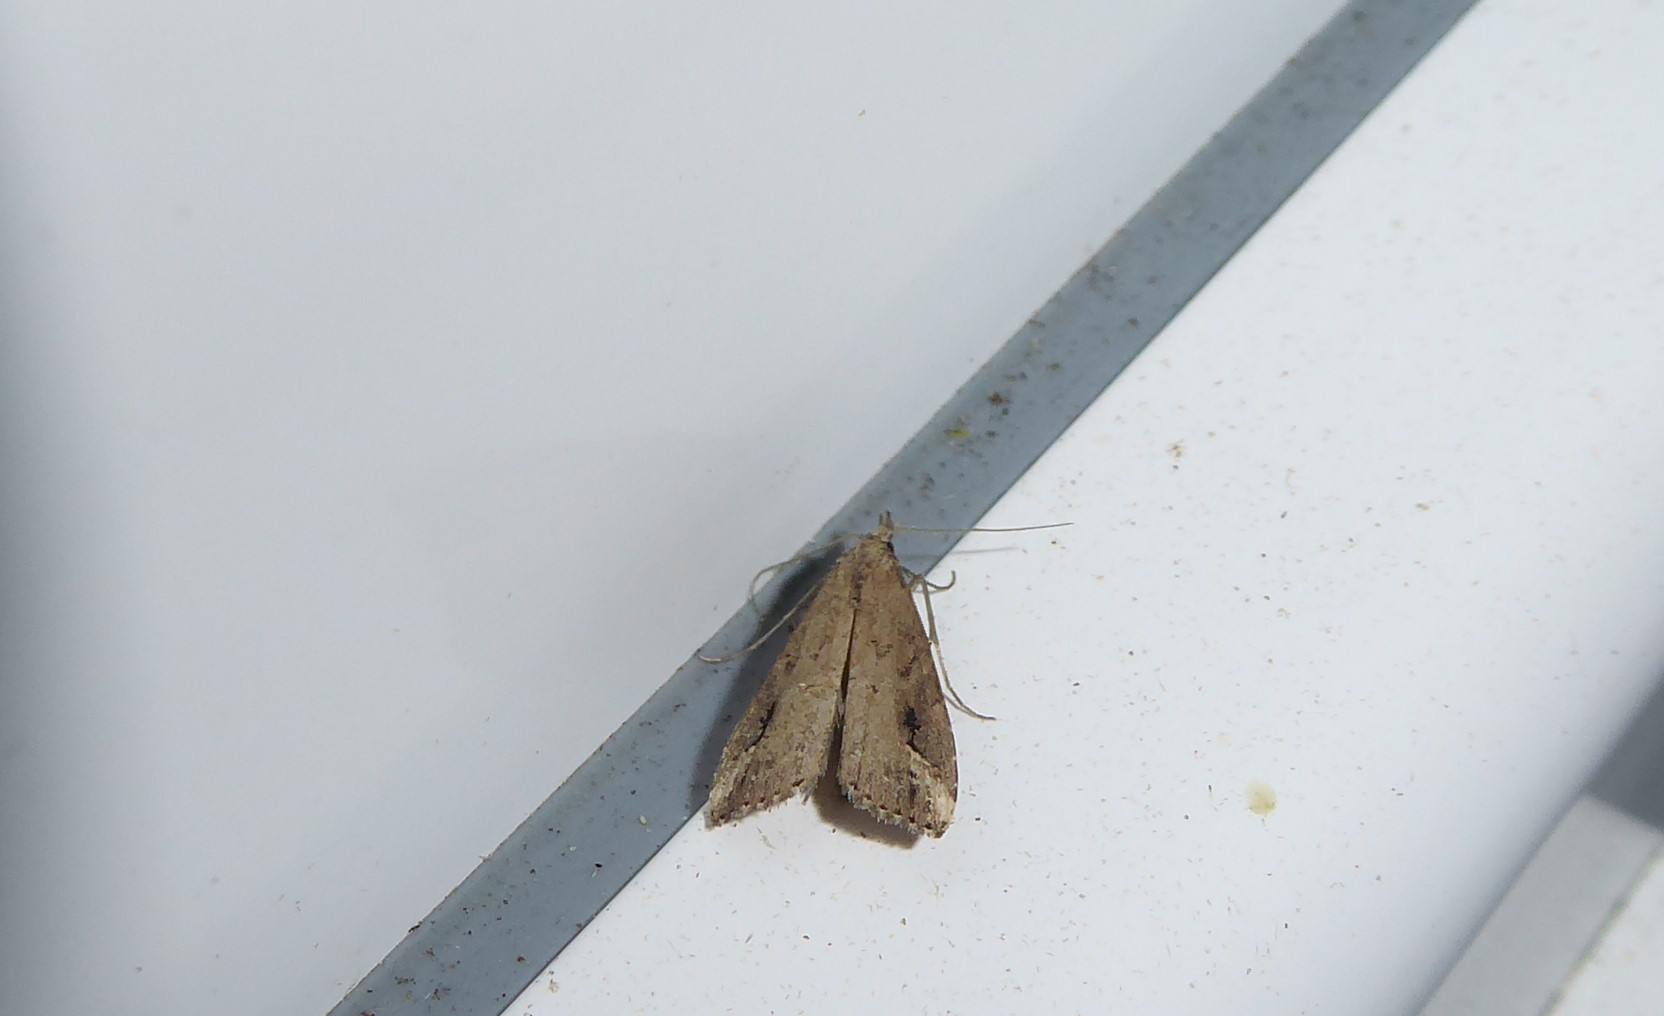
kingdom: Animalia
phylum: Arthropoda
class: Insecta
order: Lepidoptera
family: Erebidae
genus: Schrankia
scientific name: Schrankia costaestrigalis
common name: Pinion-streaked snout
